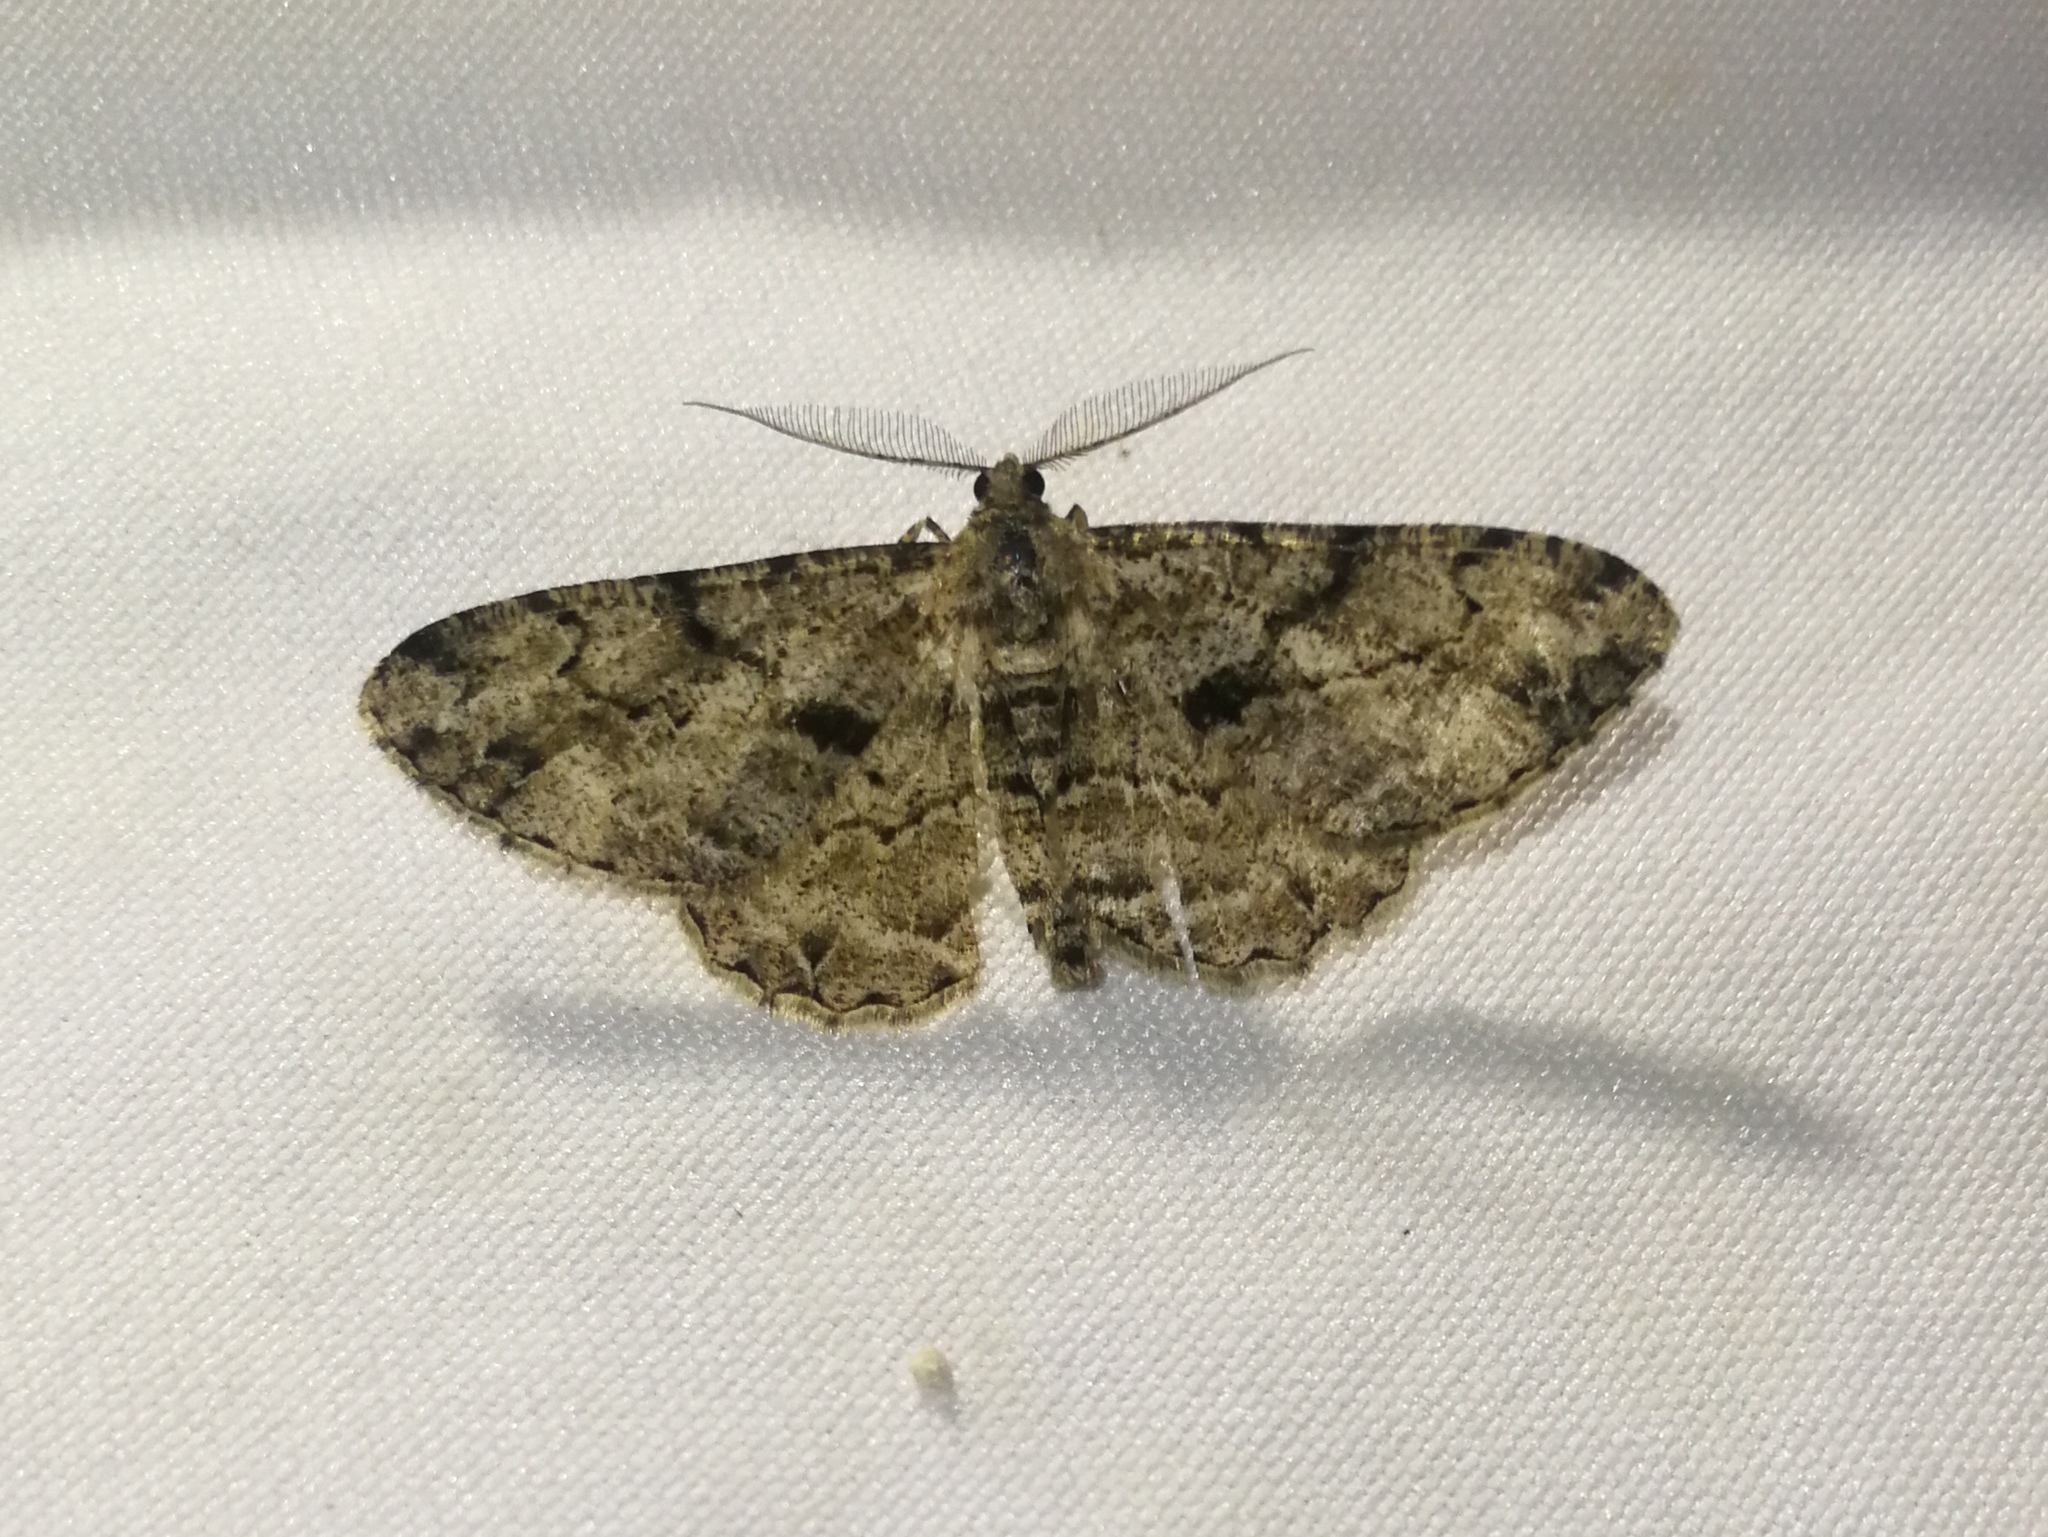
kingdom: Animalia
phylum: Arthropoda
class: Insecta
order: Lepidoptera
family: Geometridae
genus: Peribatodes
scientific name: Peribatodes rhomboidaria
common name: Willow beauty
